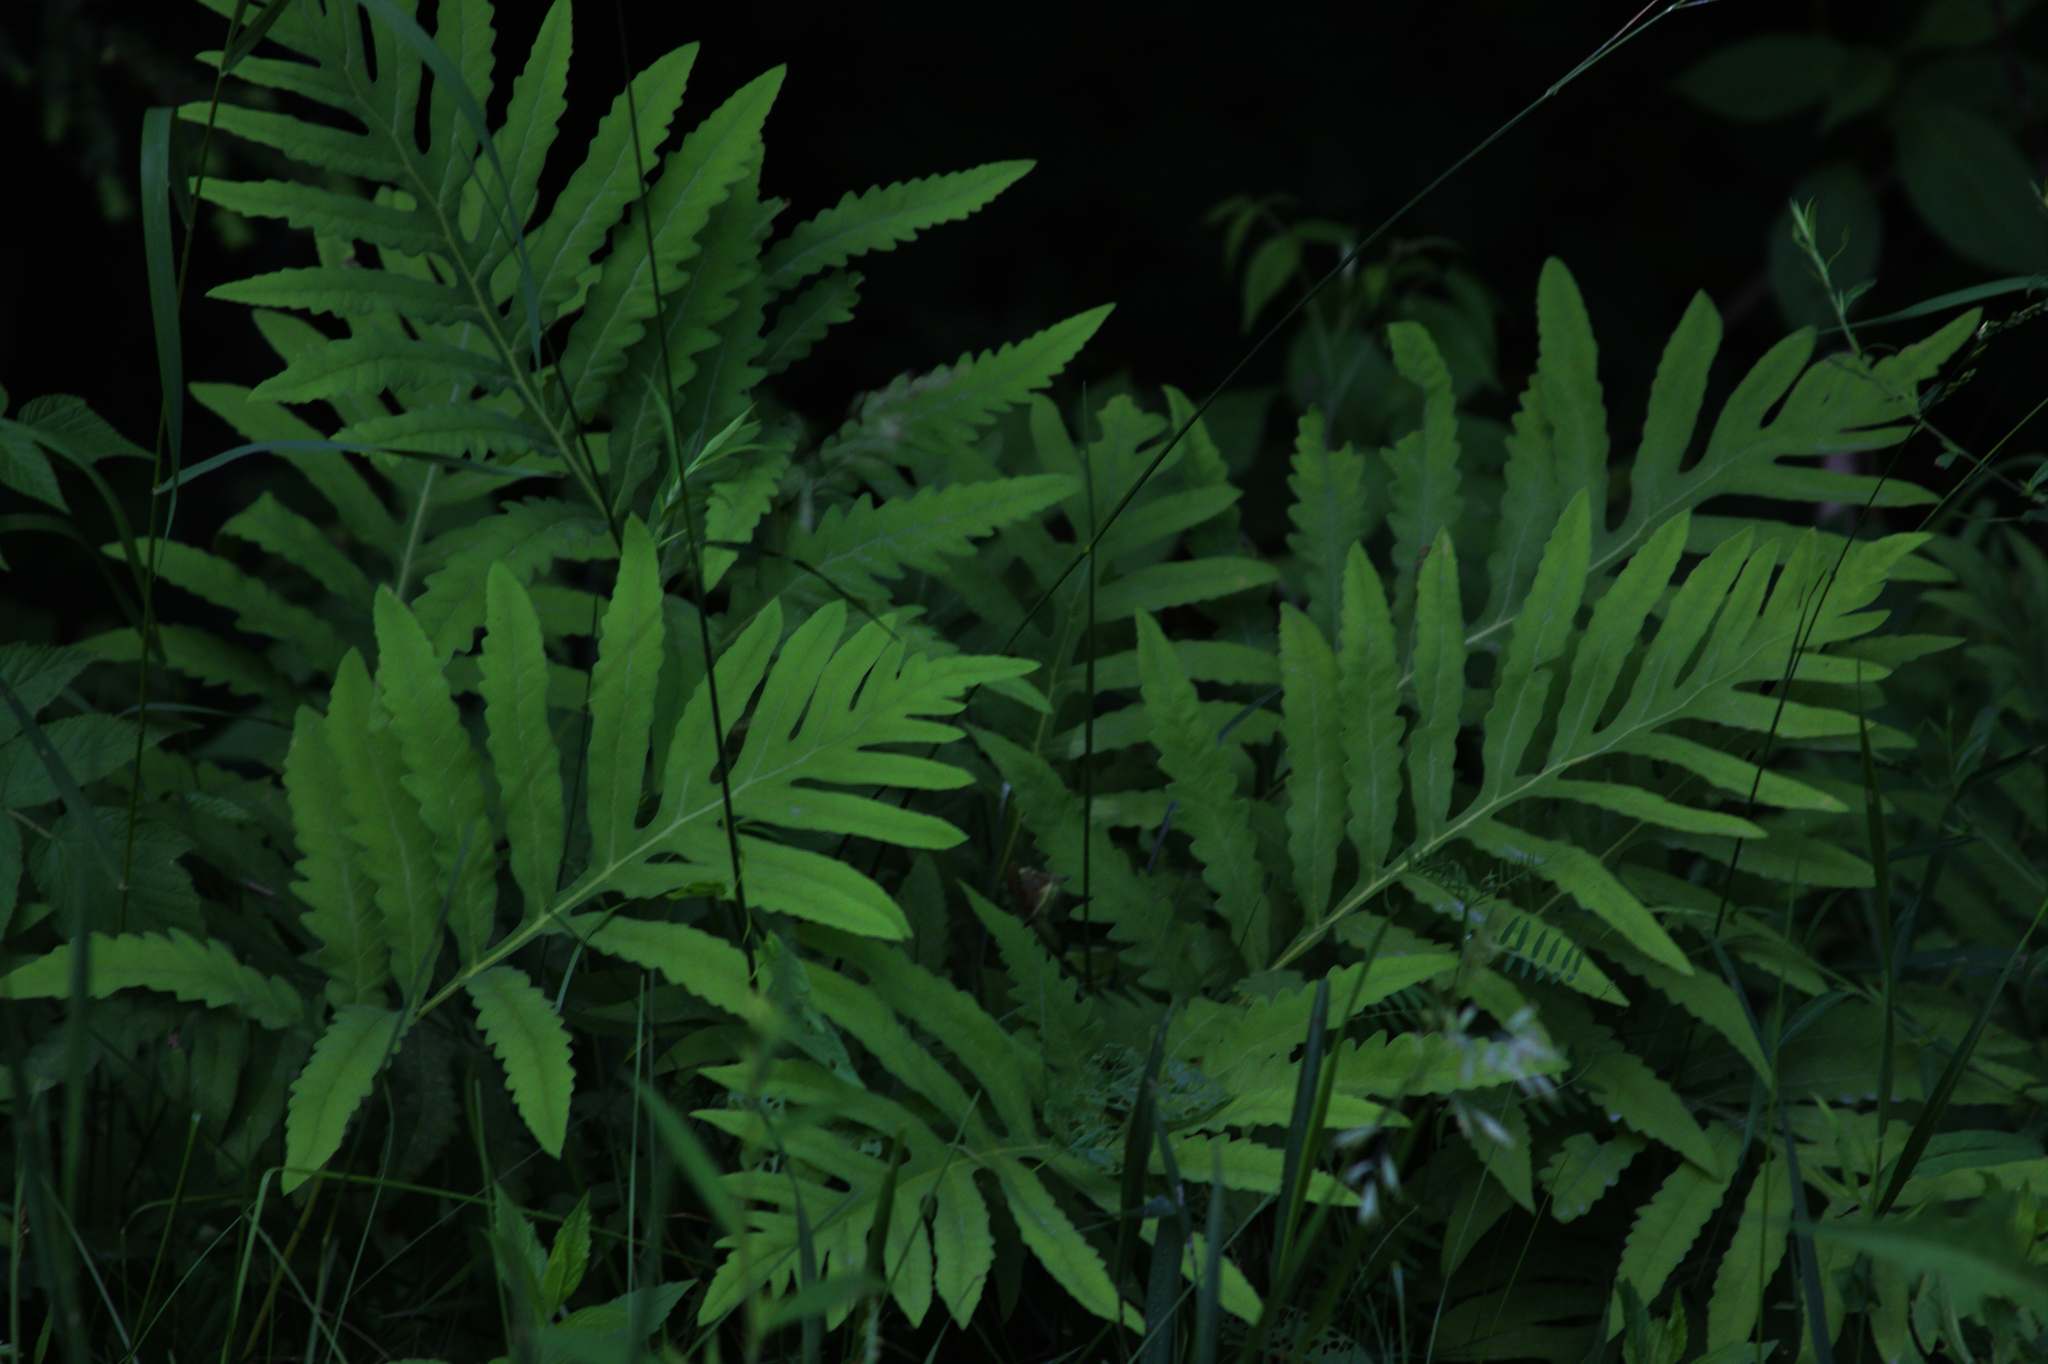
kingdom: Plantae
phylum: Tracheophyta
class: Polypodiopsida
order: Polypodiales
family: Onocleaceae
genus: Onoclea
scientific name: Onoclea sensibilis
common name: Sensitive fern
